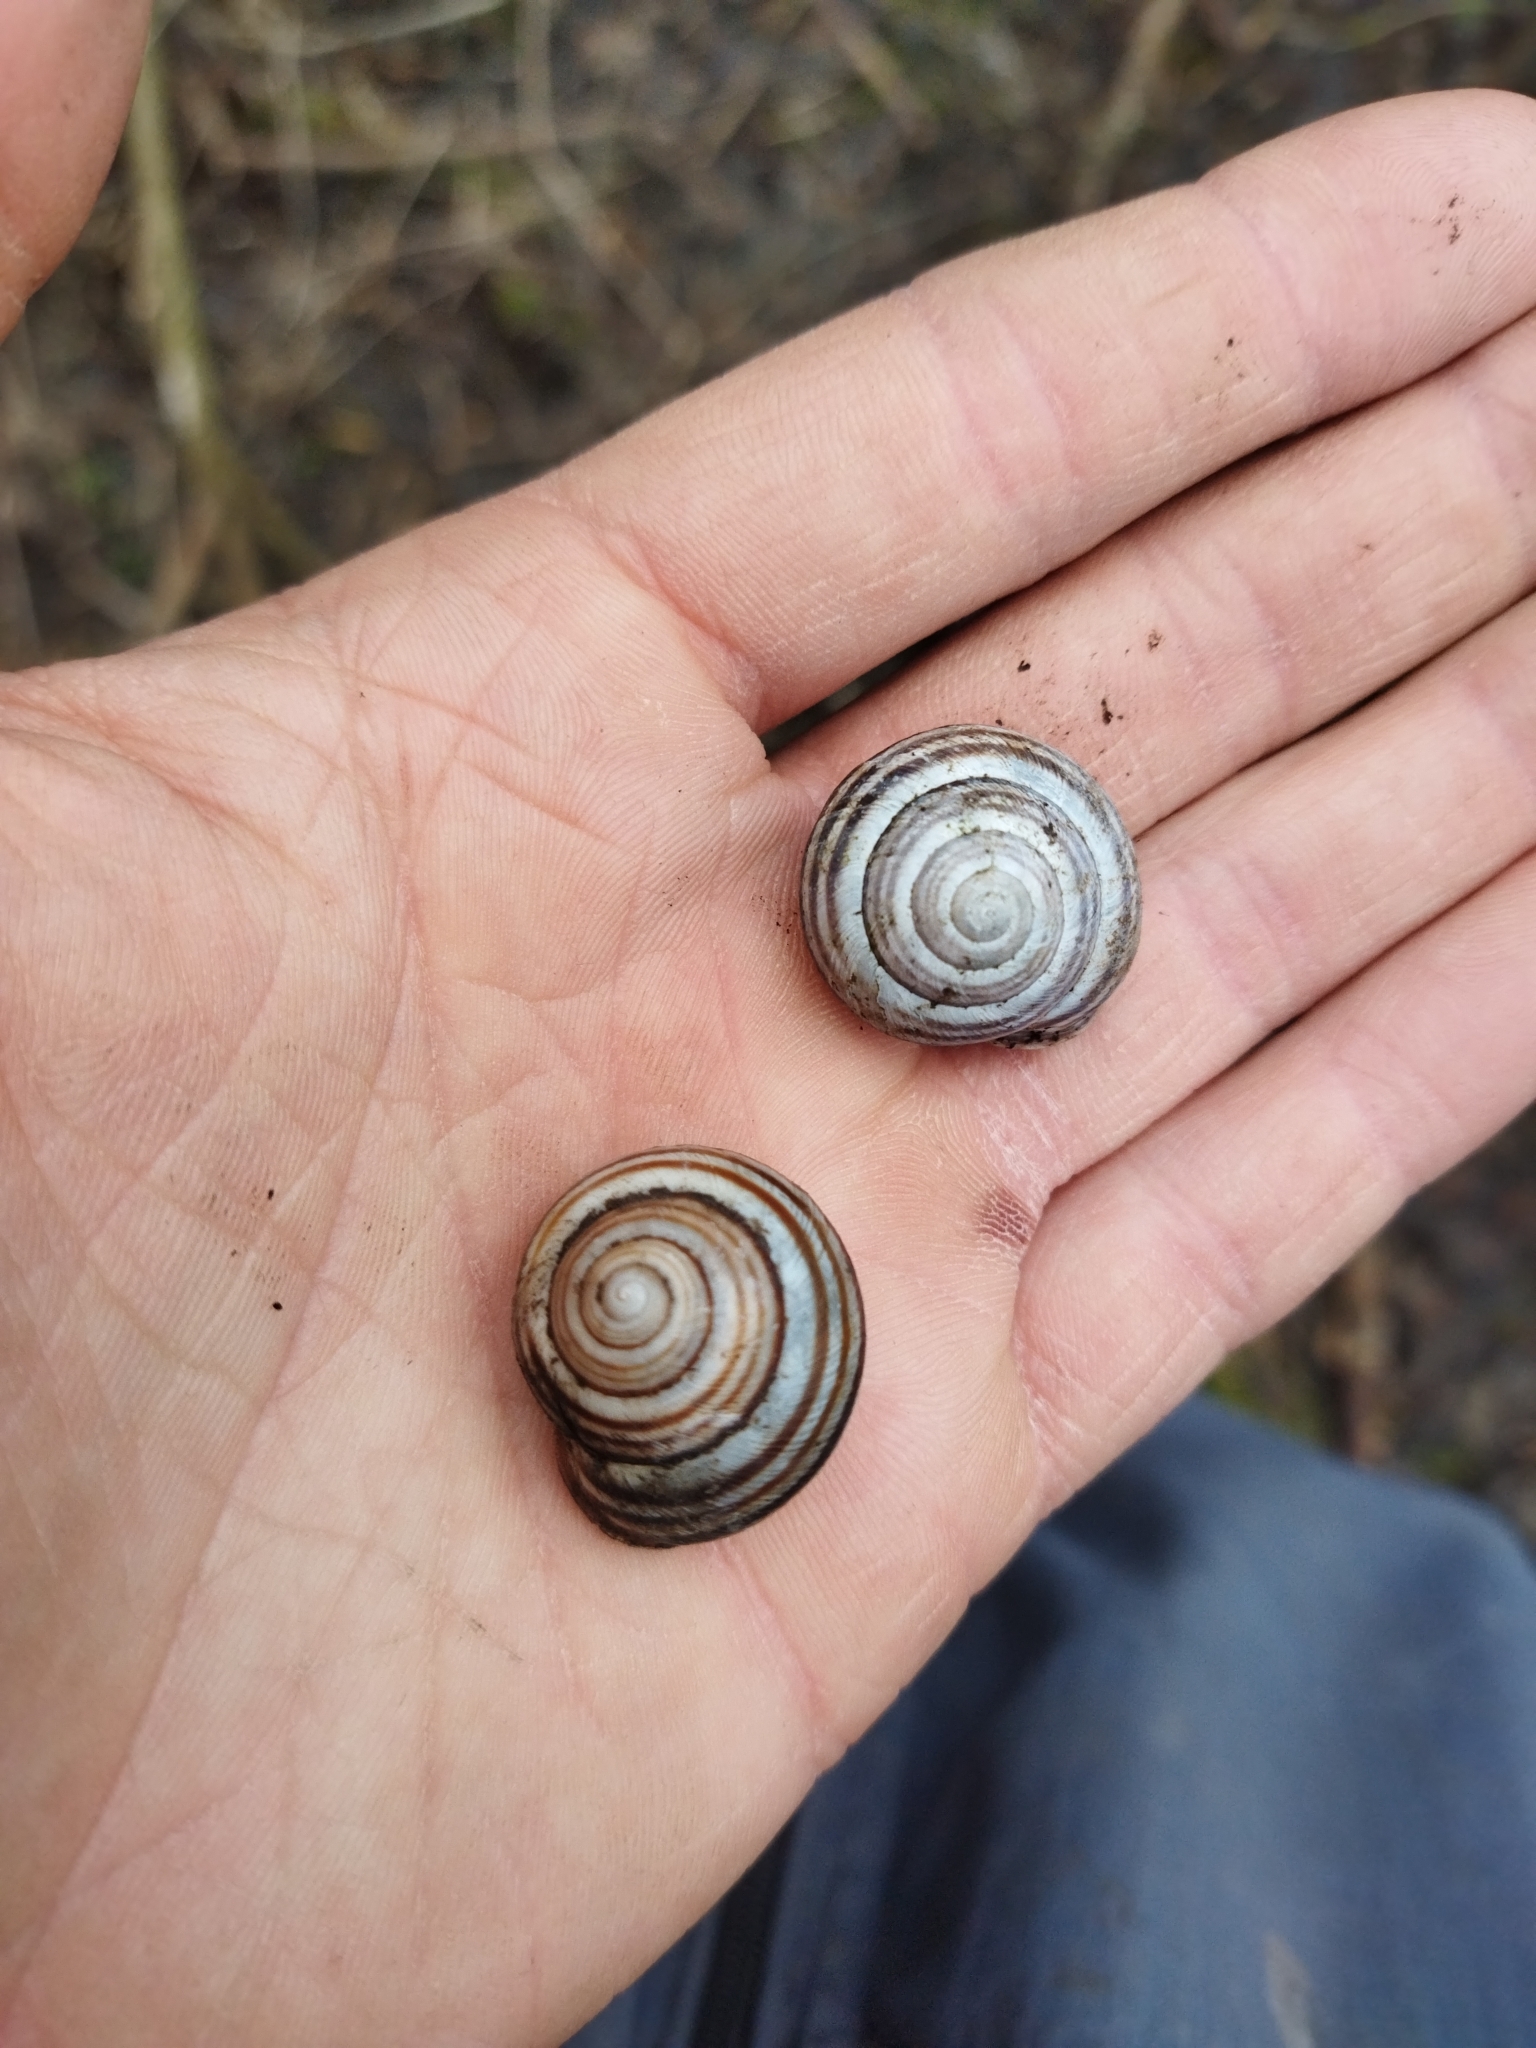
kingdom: Animalia
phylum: Mollusca
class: Gastropoda
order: Stylommatophora
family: Helicidae
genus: Caucasotachea
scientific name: Caucasotachea vindobonensis
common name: European helicid land snail
